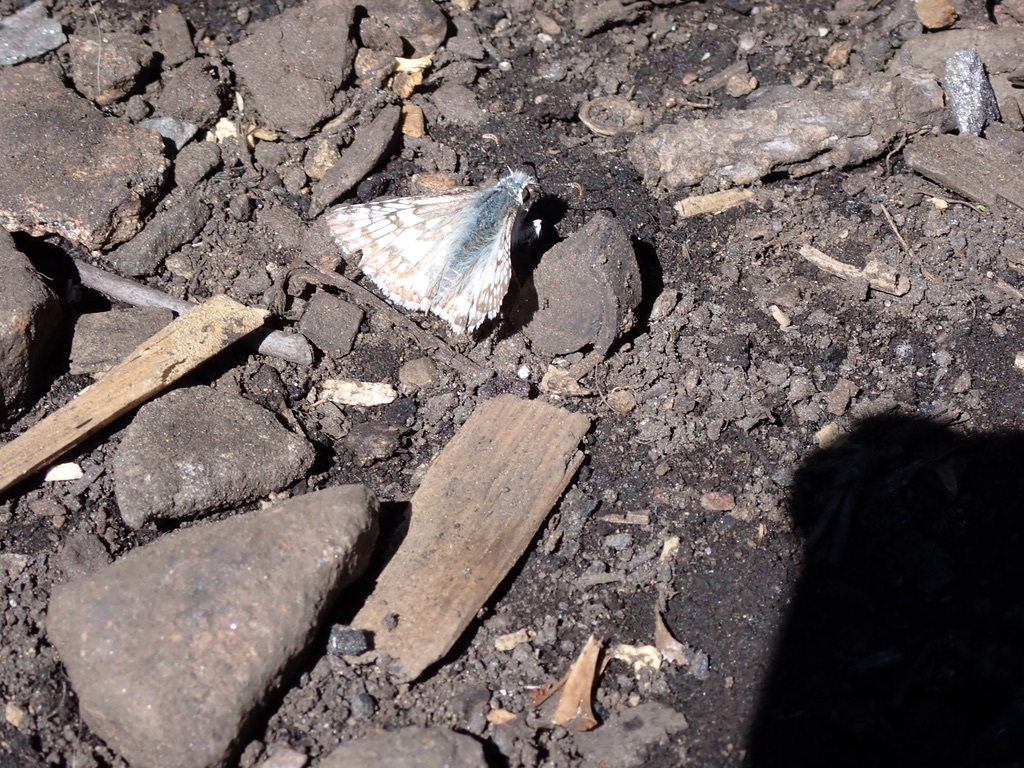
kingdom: Animalia
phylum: Arthropoda
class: Insecta
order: Lepidoptera
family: Hesperiidae
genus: Burnsius
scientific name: Burnsius communis
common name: Common checkered-skipper
